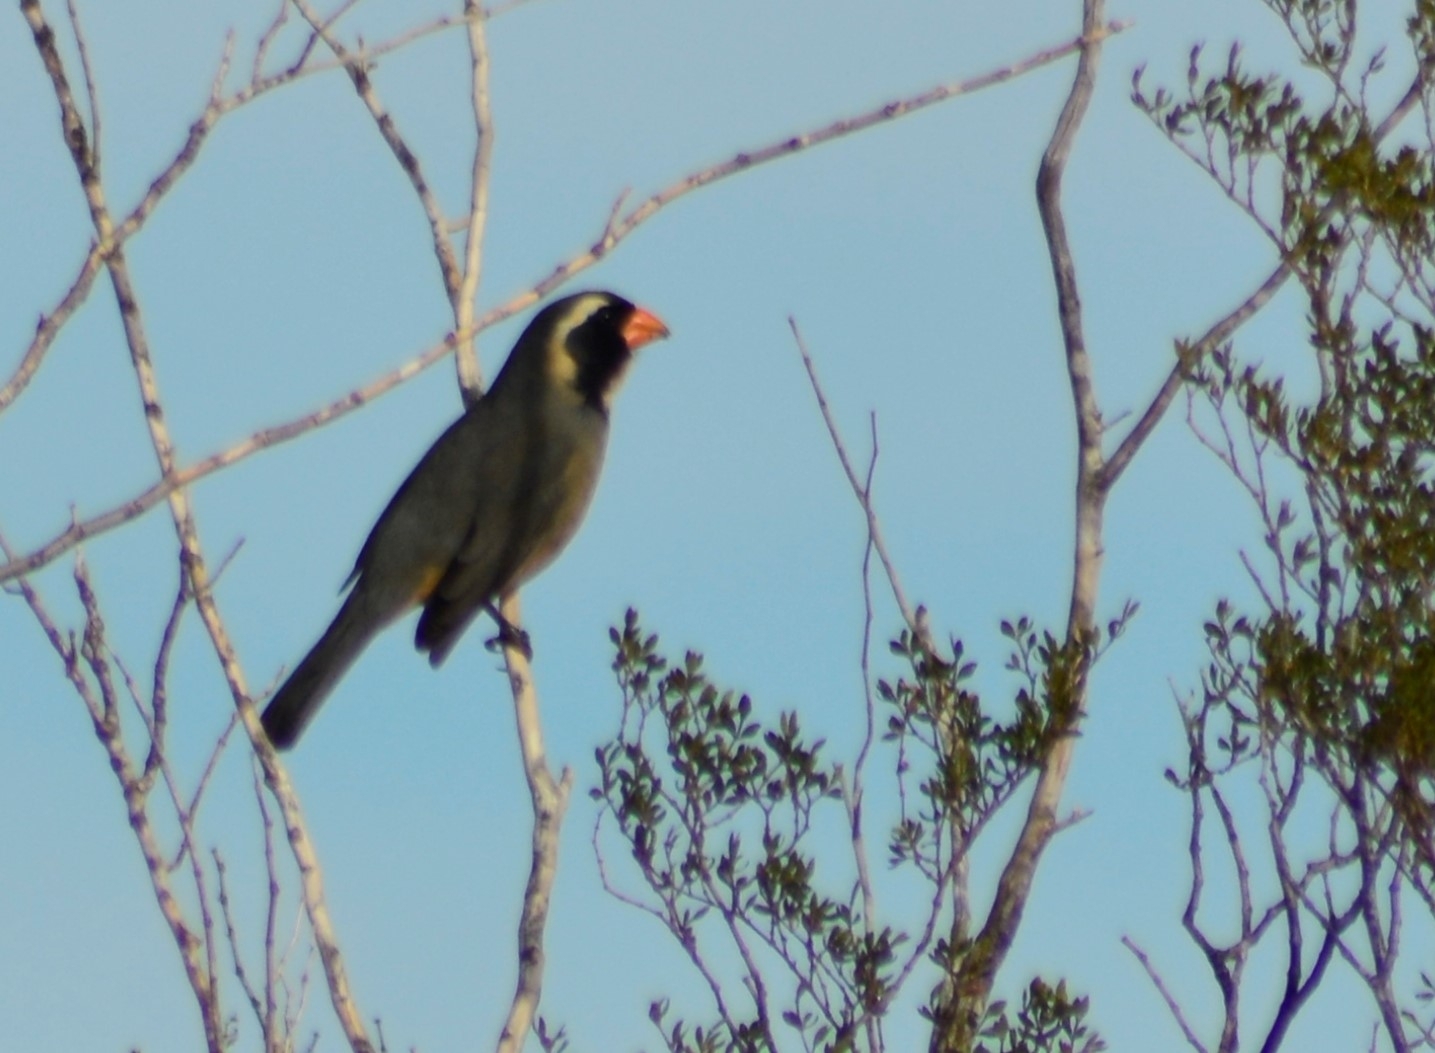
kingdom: Animalia
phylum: Chordata
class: Aves
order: Passeriformes
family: Thraupidae
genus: Saltator
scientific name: Saltator aurantiirostris
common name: Golden-billed saltator
